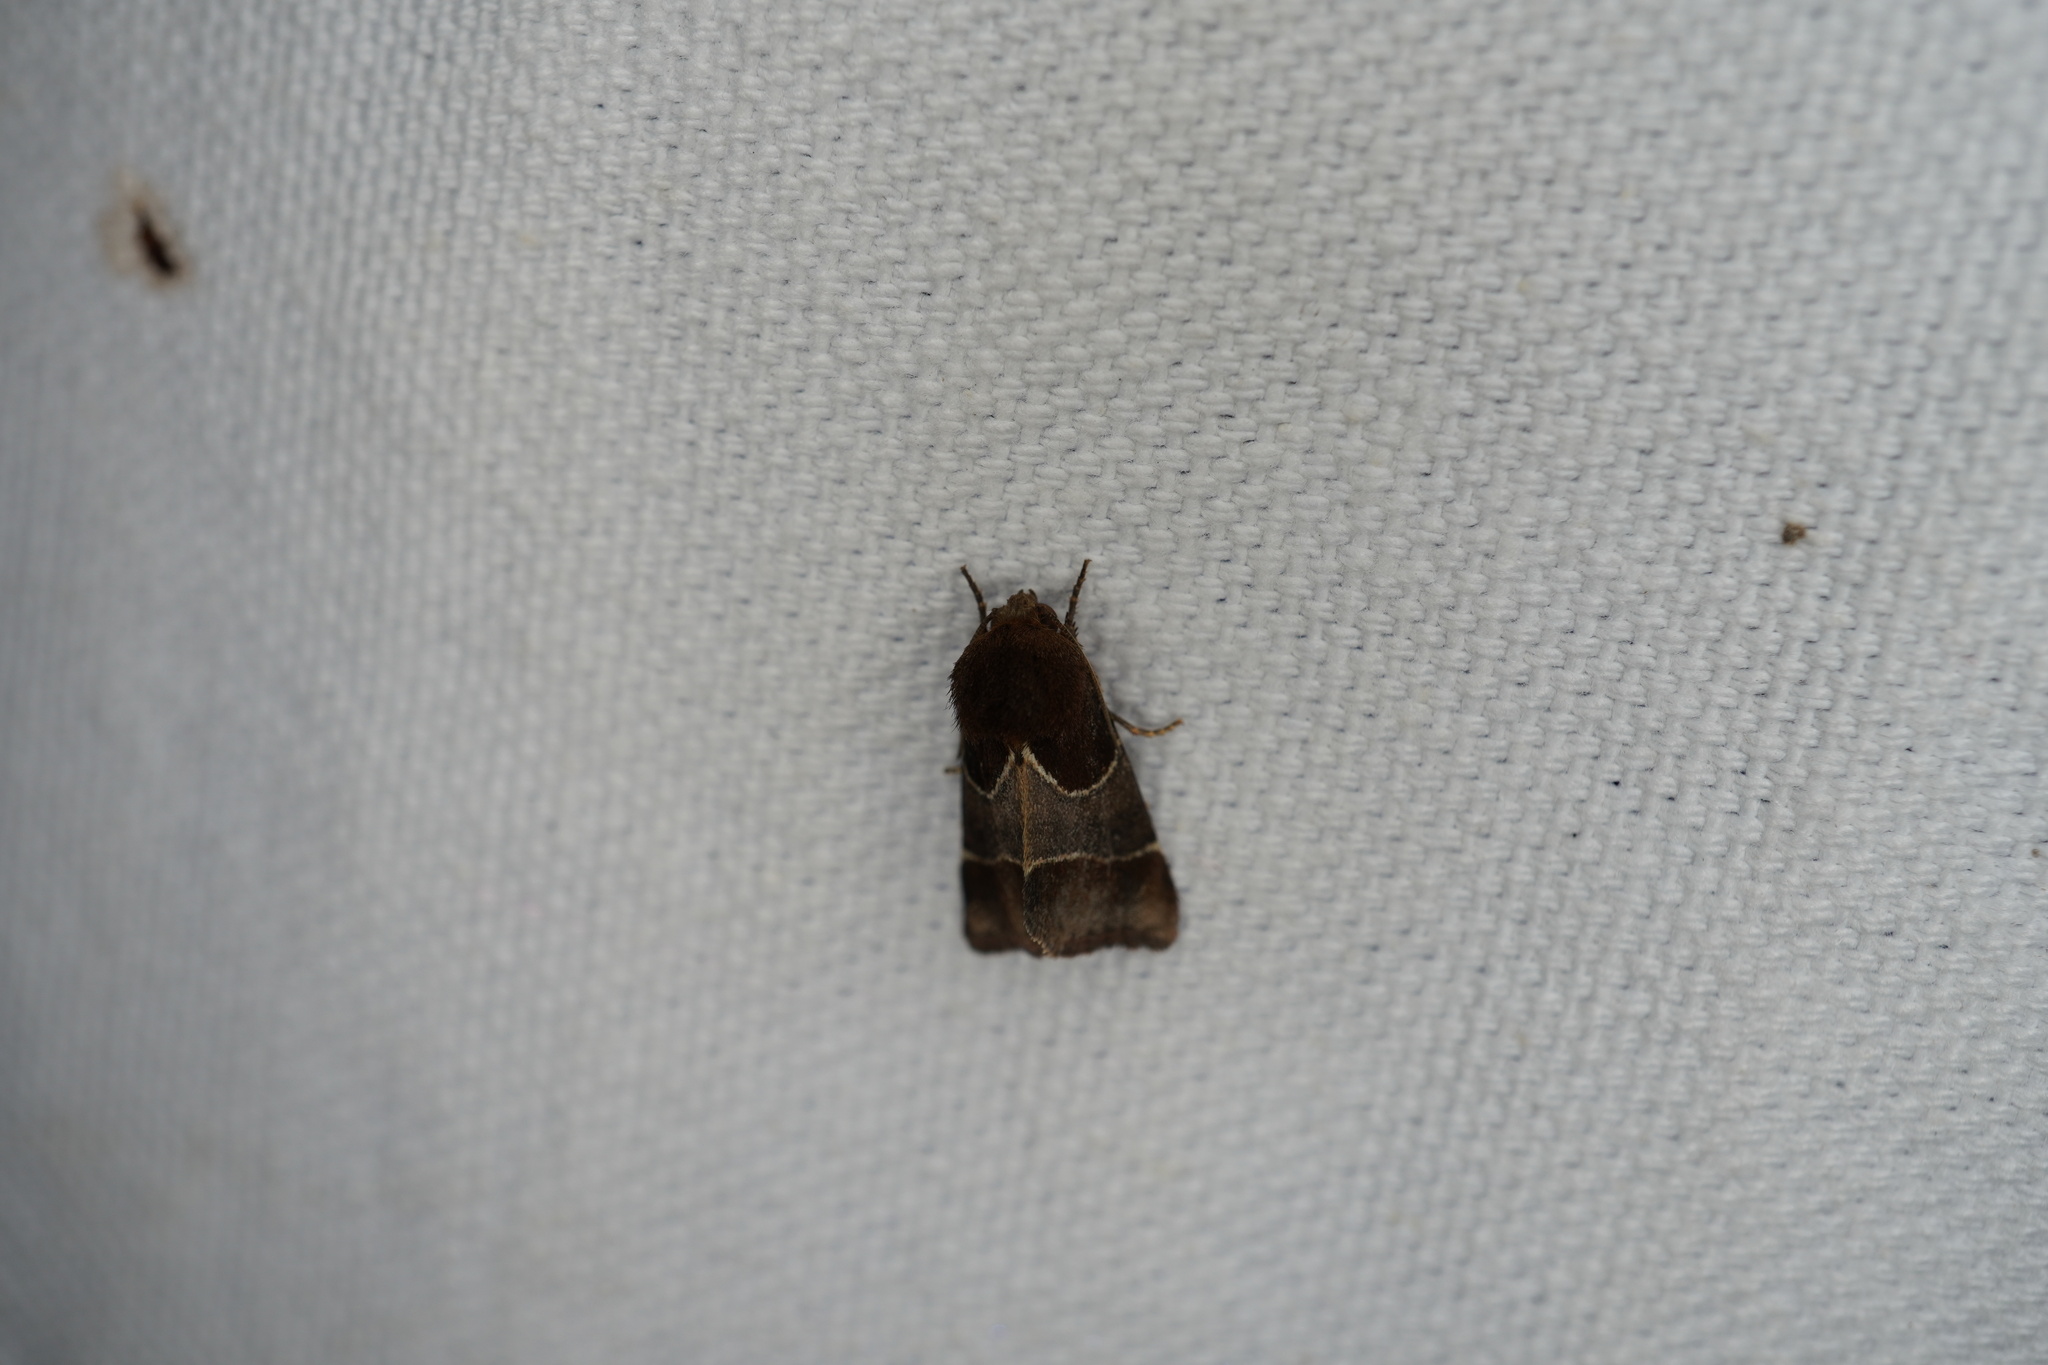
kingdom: Animalia
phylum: Arthropoda
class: Insecta
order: Lepidoptera
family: Noctuidae
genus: Schinia
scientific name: Schinia arcigera
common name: Arcigera flower moth
